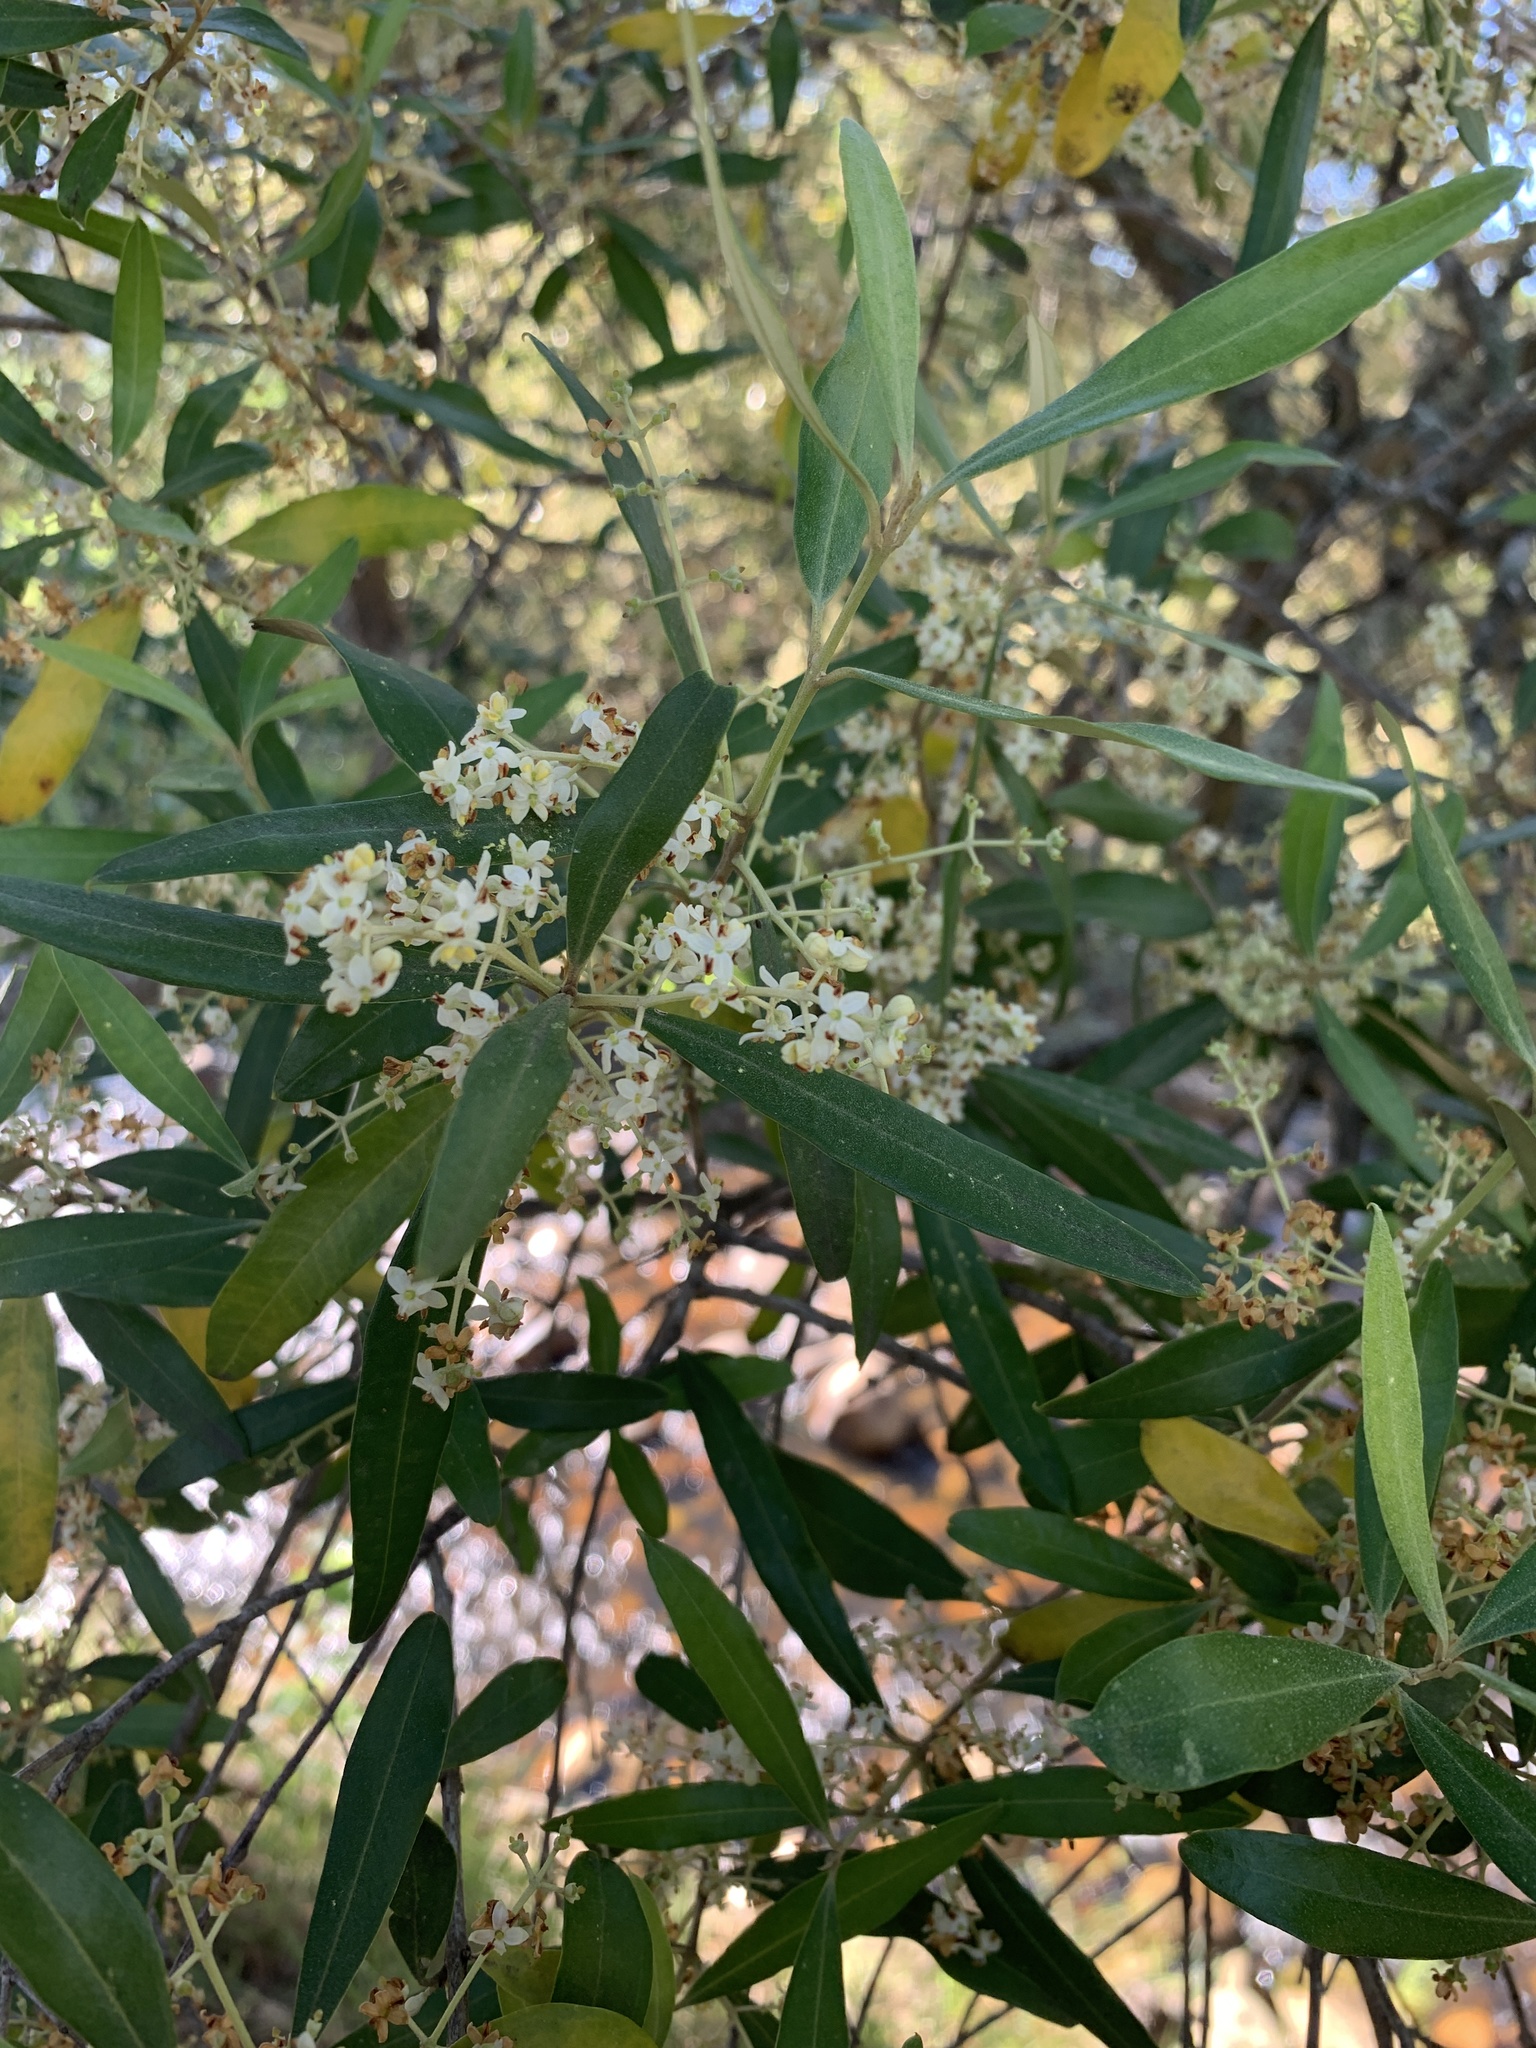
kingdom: Plantae
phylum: Tracheophyta
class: Magnoliopsida
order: Lamiales
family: Oleaceae
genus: Olea
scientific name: Olea europaea
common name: Olive
